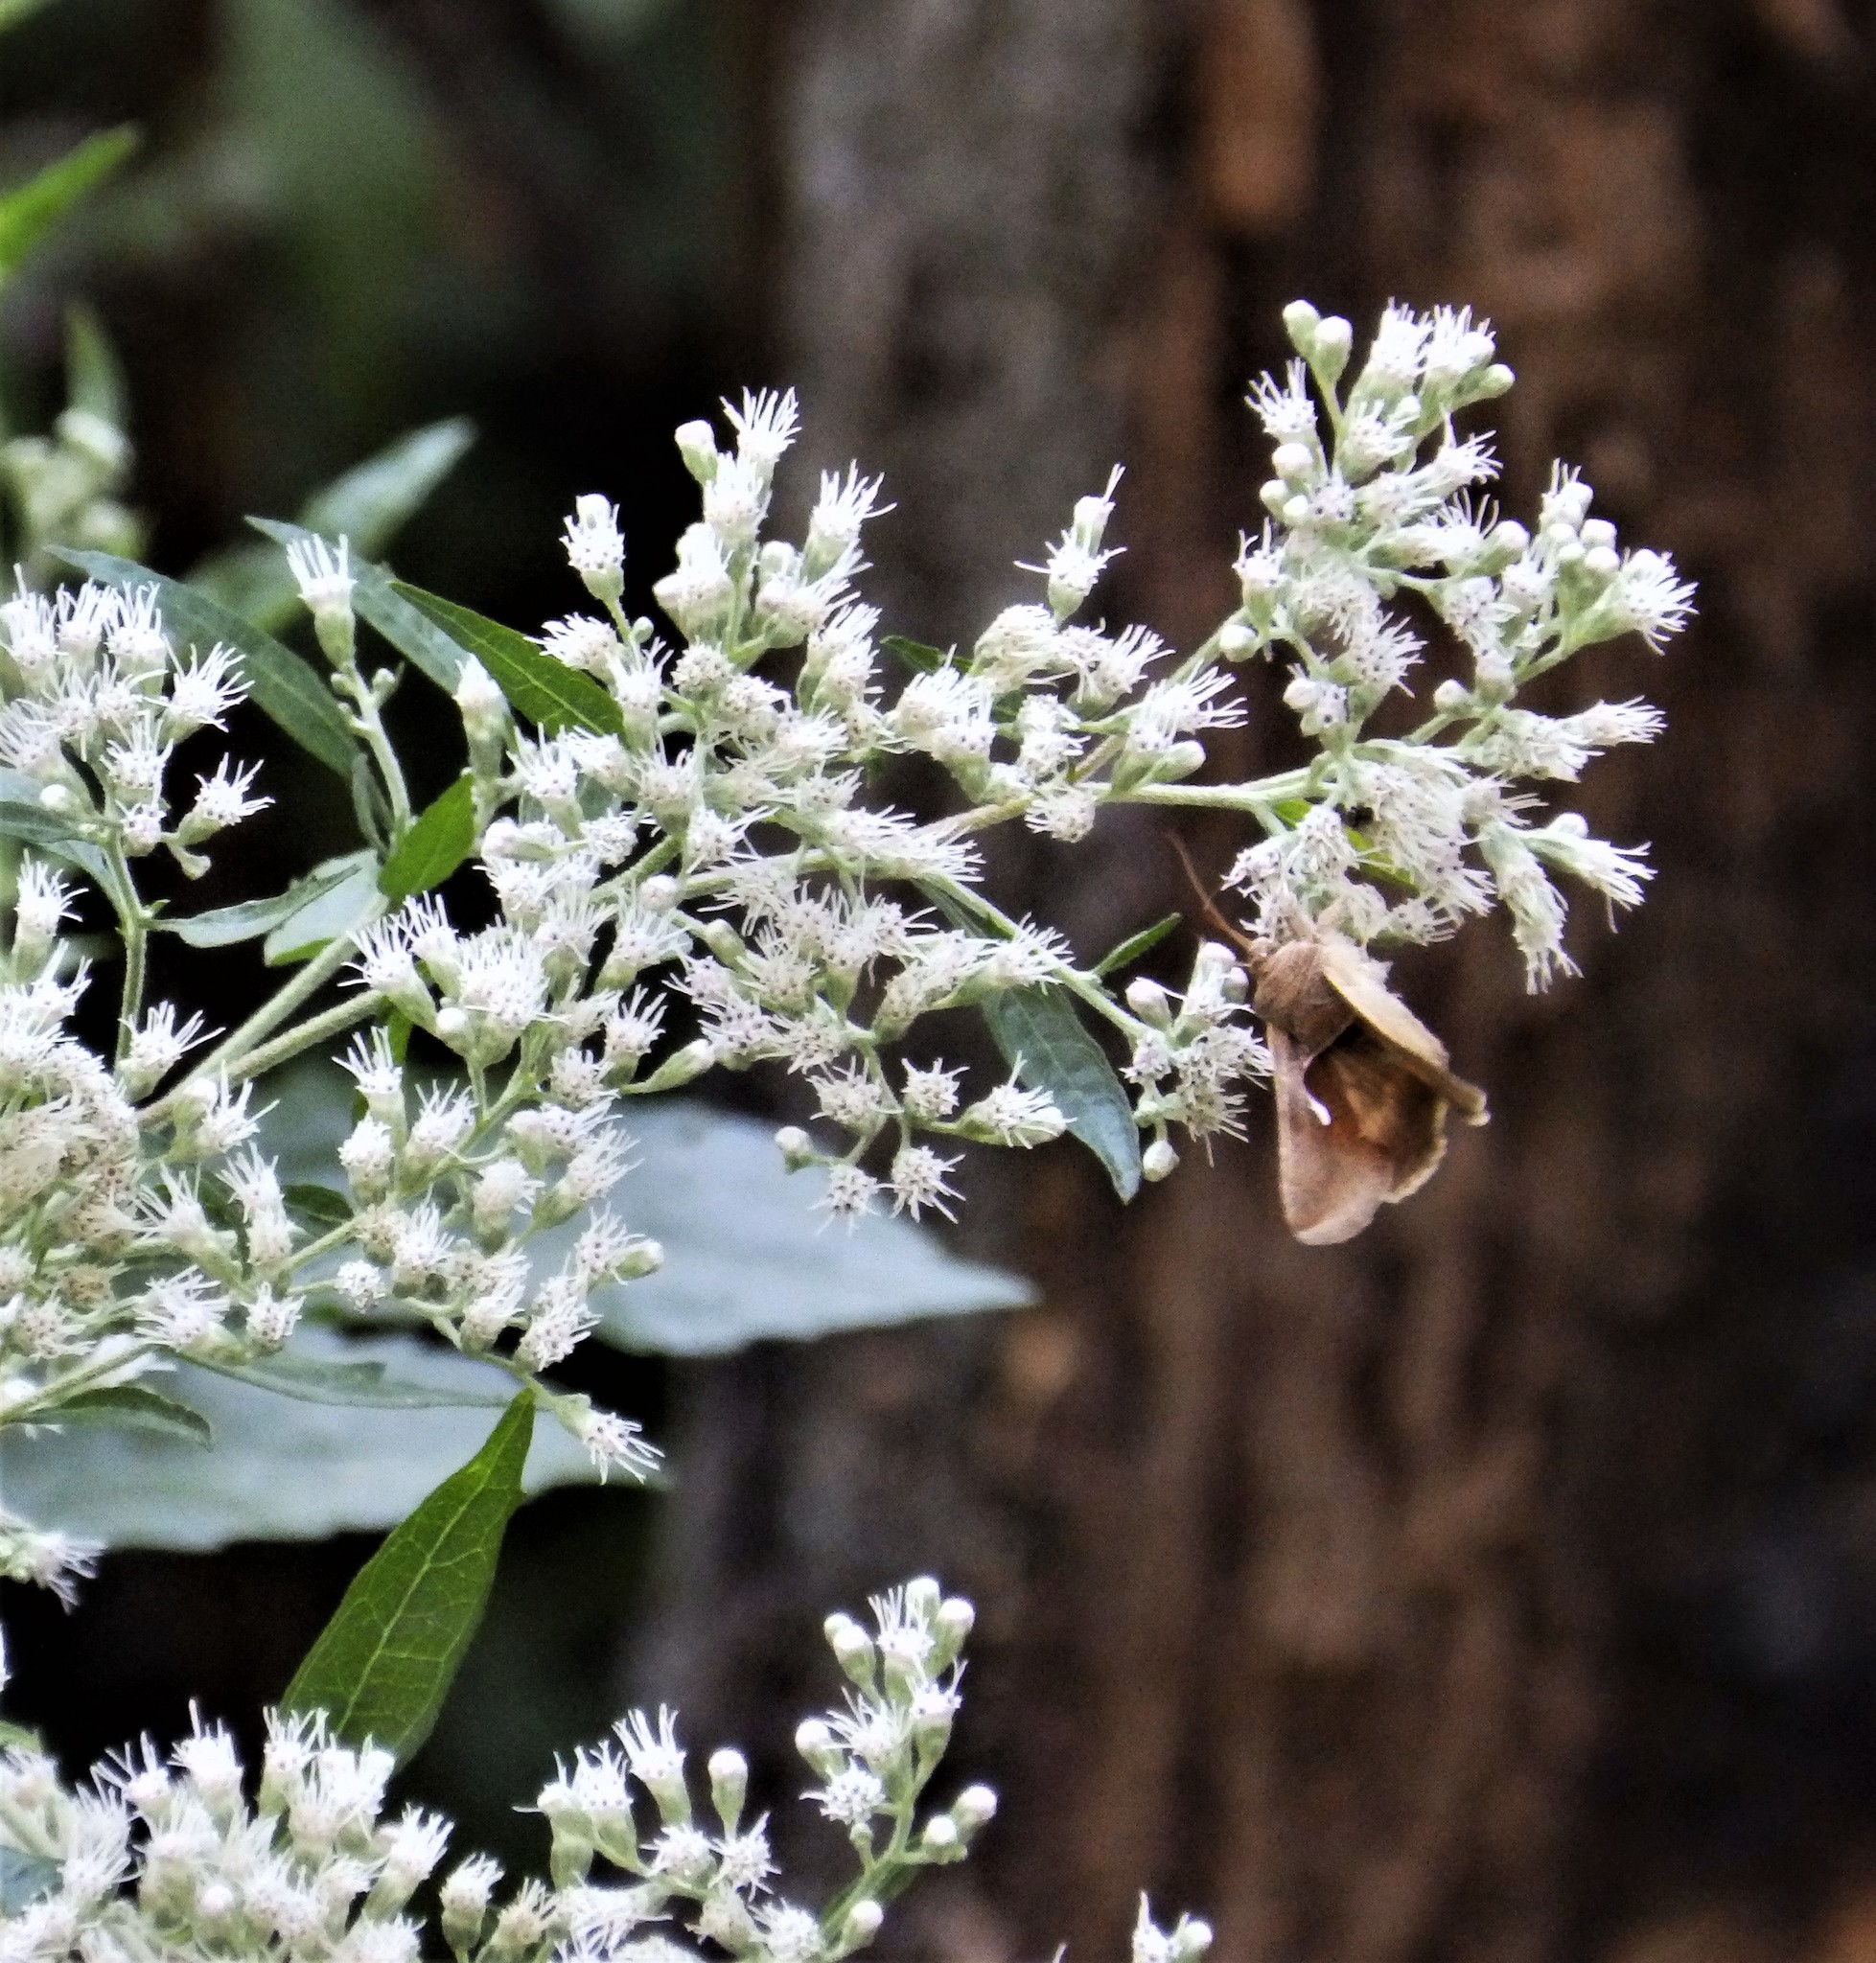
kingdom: Animalia
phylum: Arthropoda
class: Insecta
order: Lepidoptera
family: Noctuidae
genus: Anagrapha
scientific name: Anagrapha falcifera
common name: Celery looper
